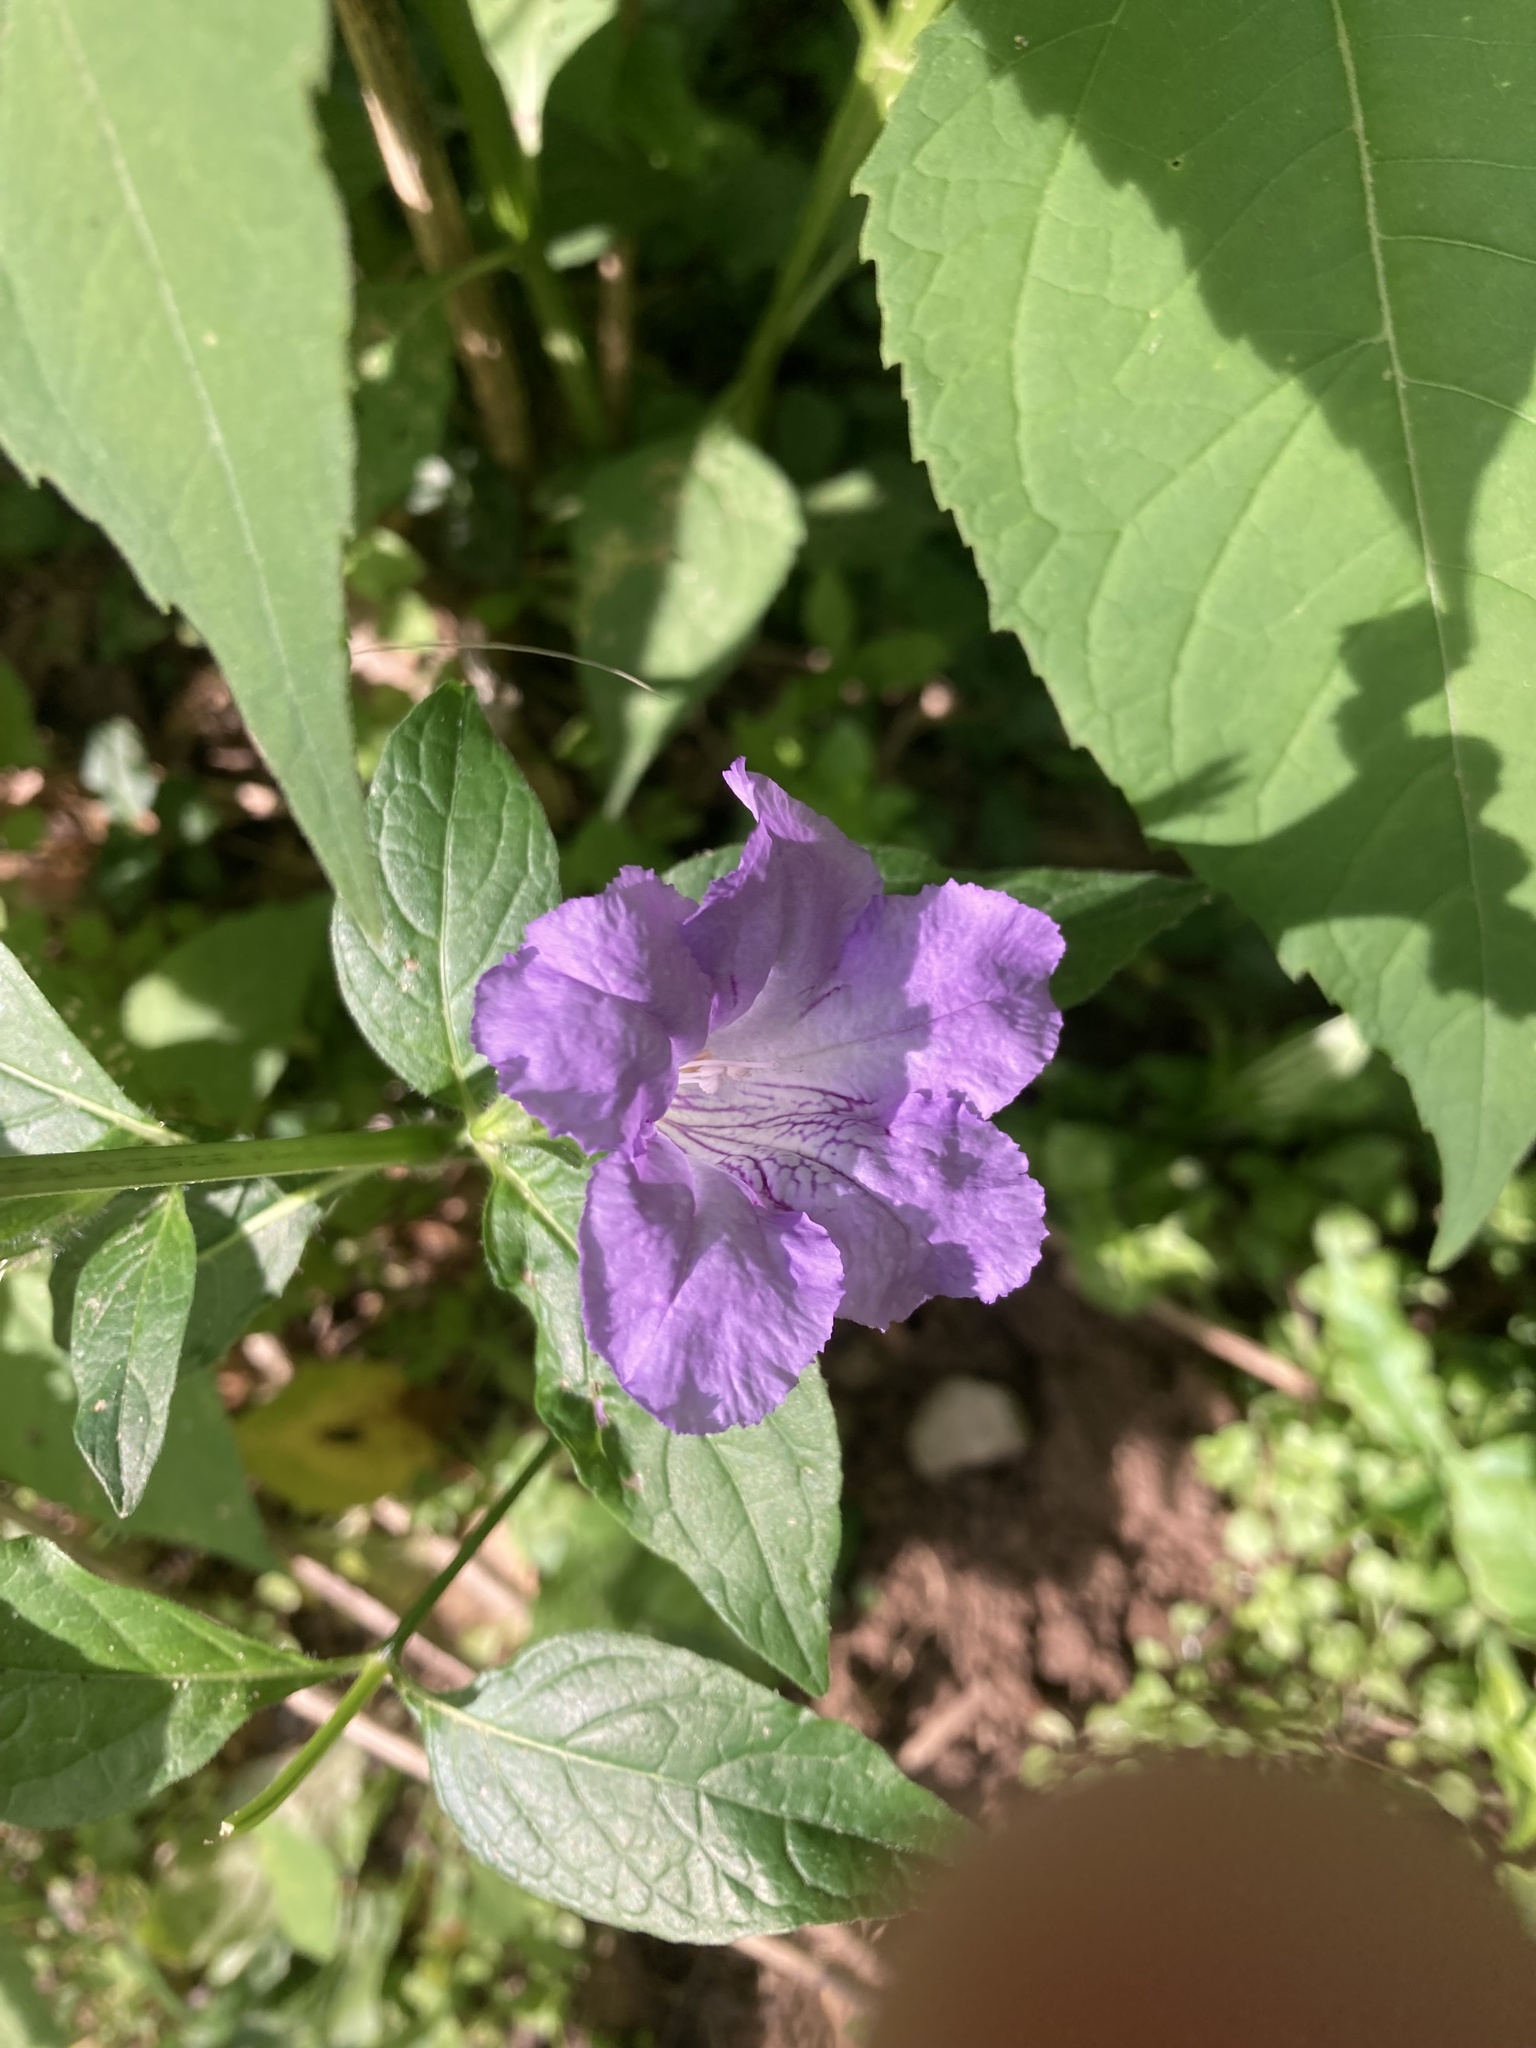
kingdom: Plantae
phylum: Tracheophyta
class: Magnoliopsida
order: Lamiales
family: Acanthaceae
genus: Ruellia
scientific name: Ruellia strepens
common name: Limestone wild petunia
